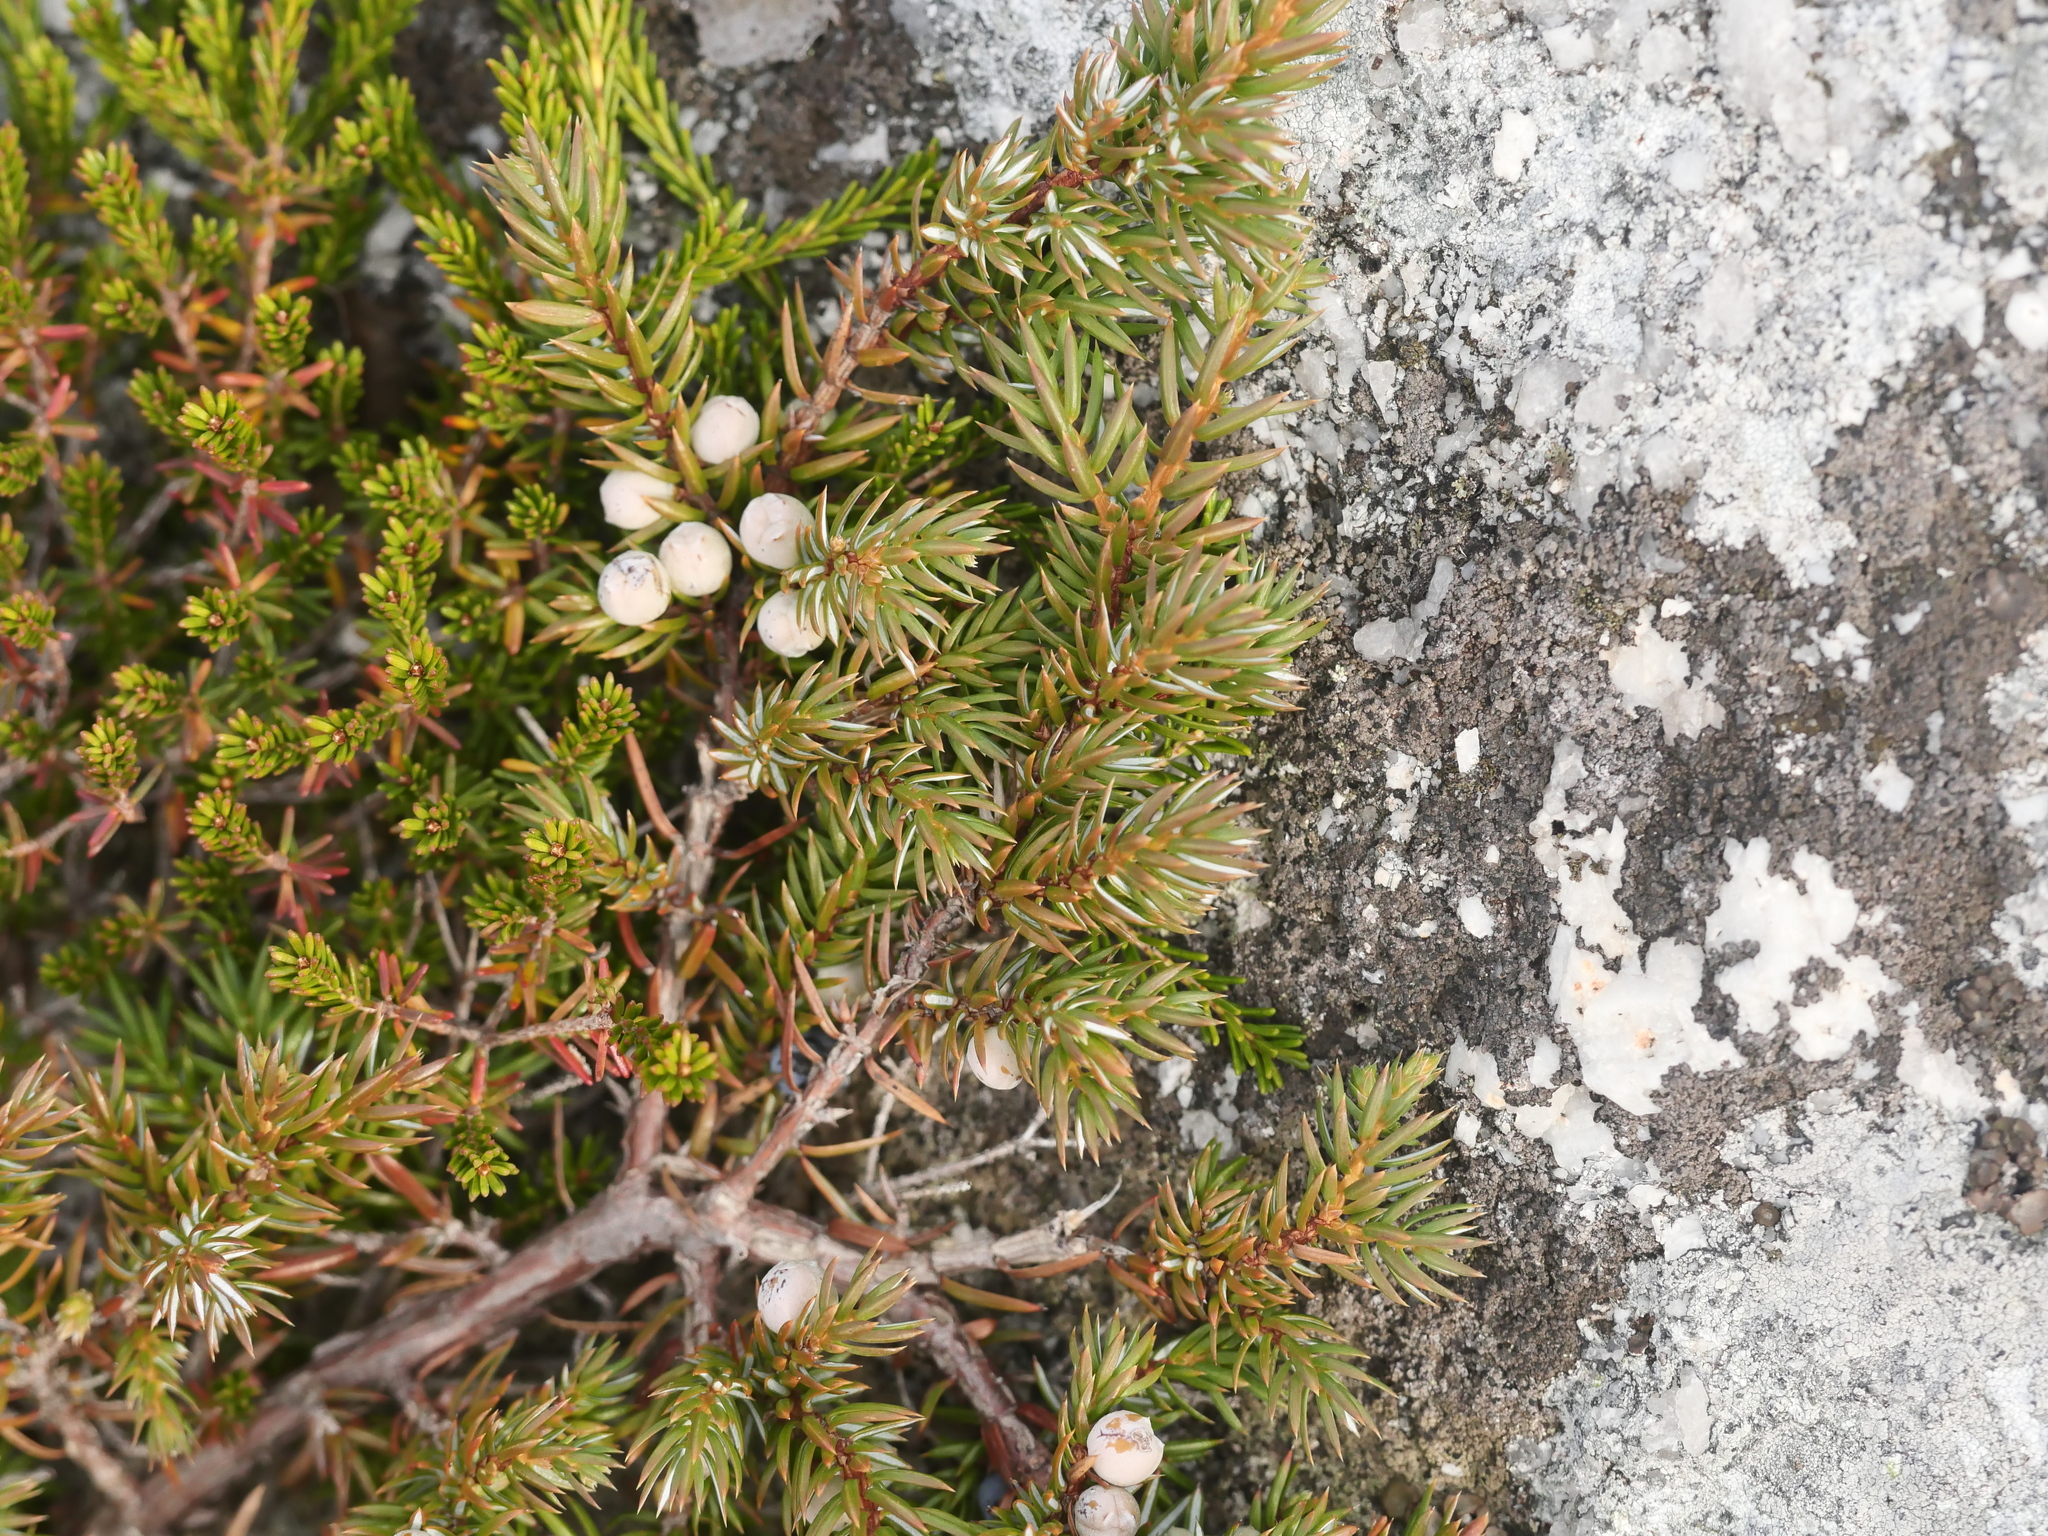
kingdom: Plantae
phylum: Tracheophyta
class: Pinopsida
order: Pinales
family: Cupressaceae
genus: Juniperus
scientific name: Juniperus communis
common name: Common juniper
